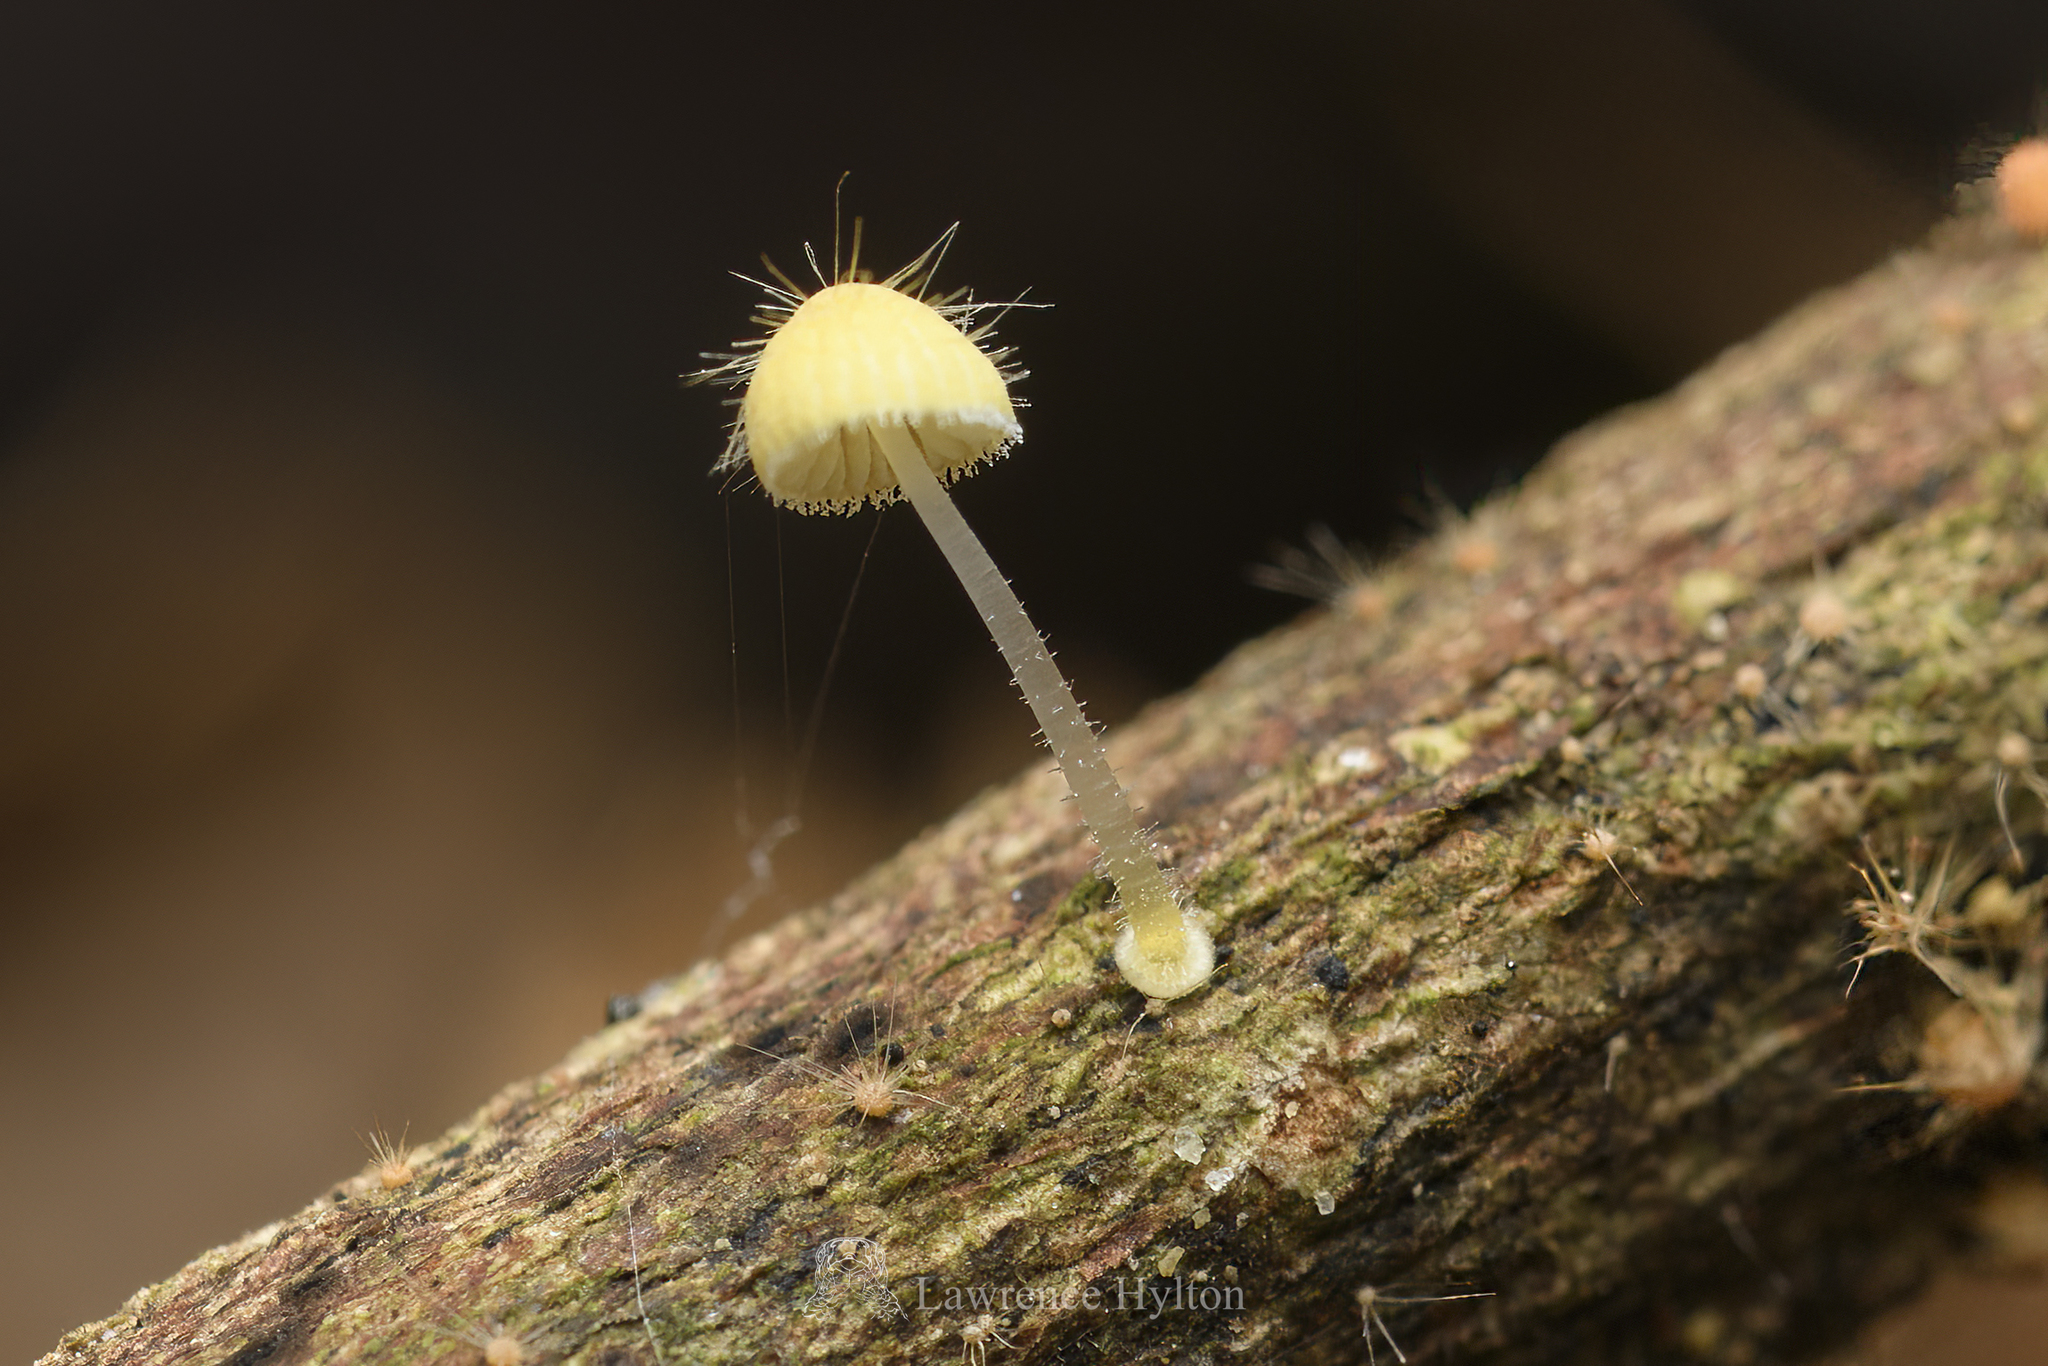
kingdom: Fungi
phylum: Basidiomycota
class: Agaricomycetes
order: Agaricales
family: Mycenaceae
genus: Mycena
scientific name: Mycena brunneisetosa
